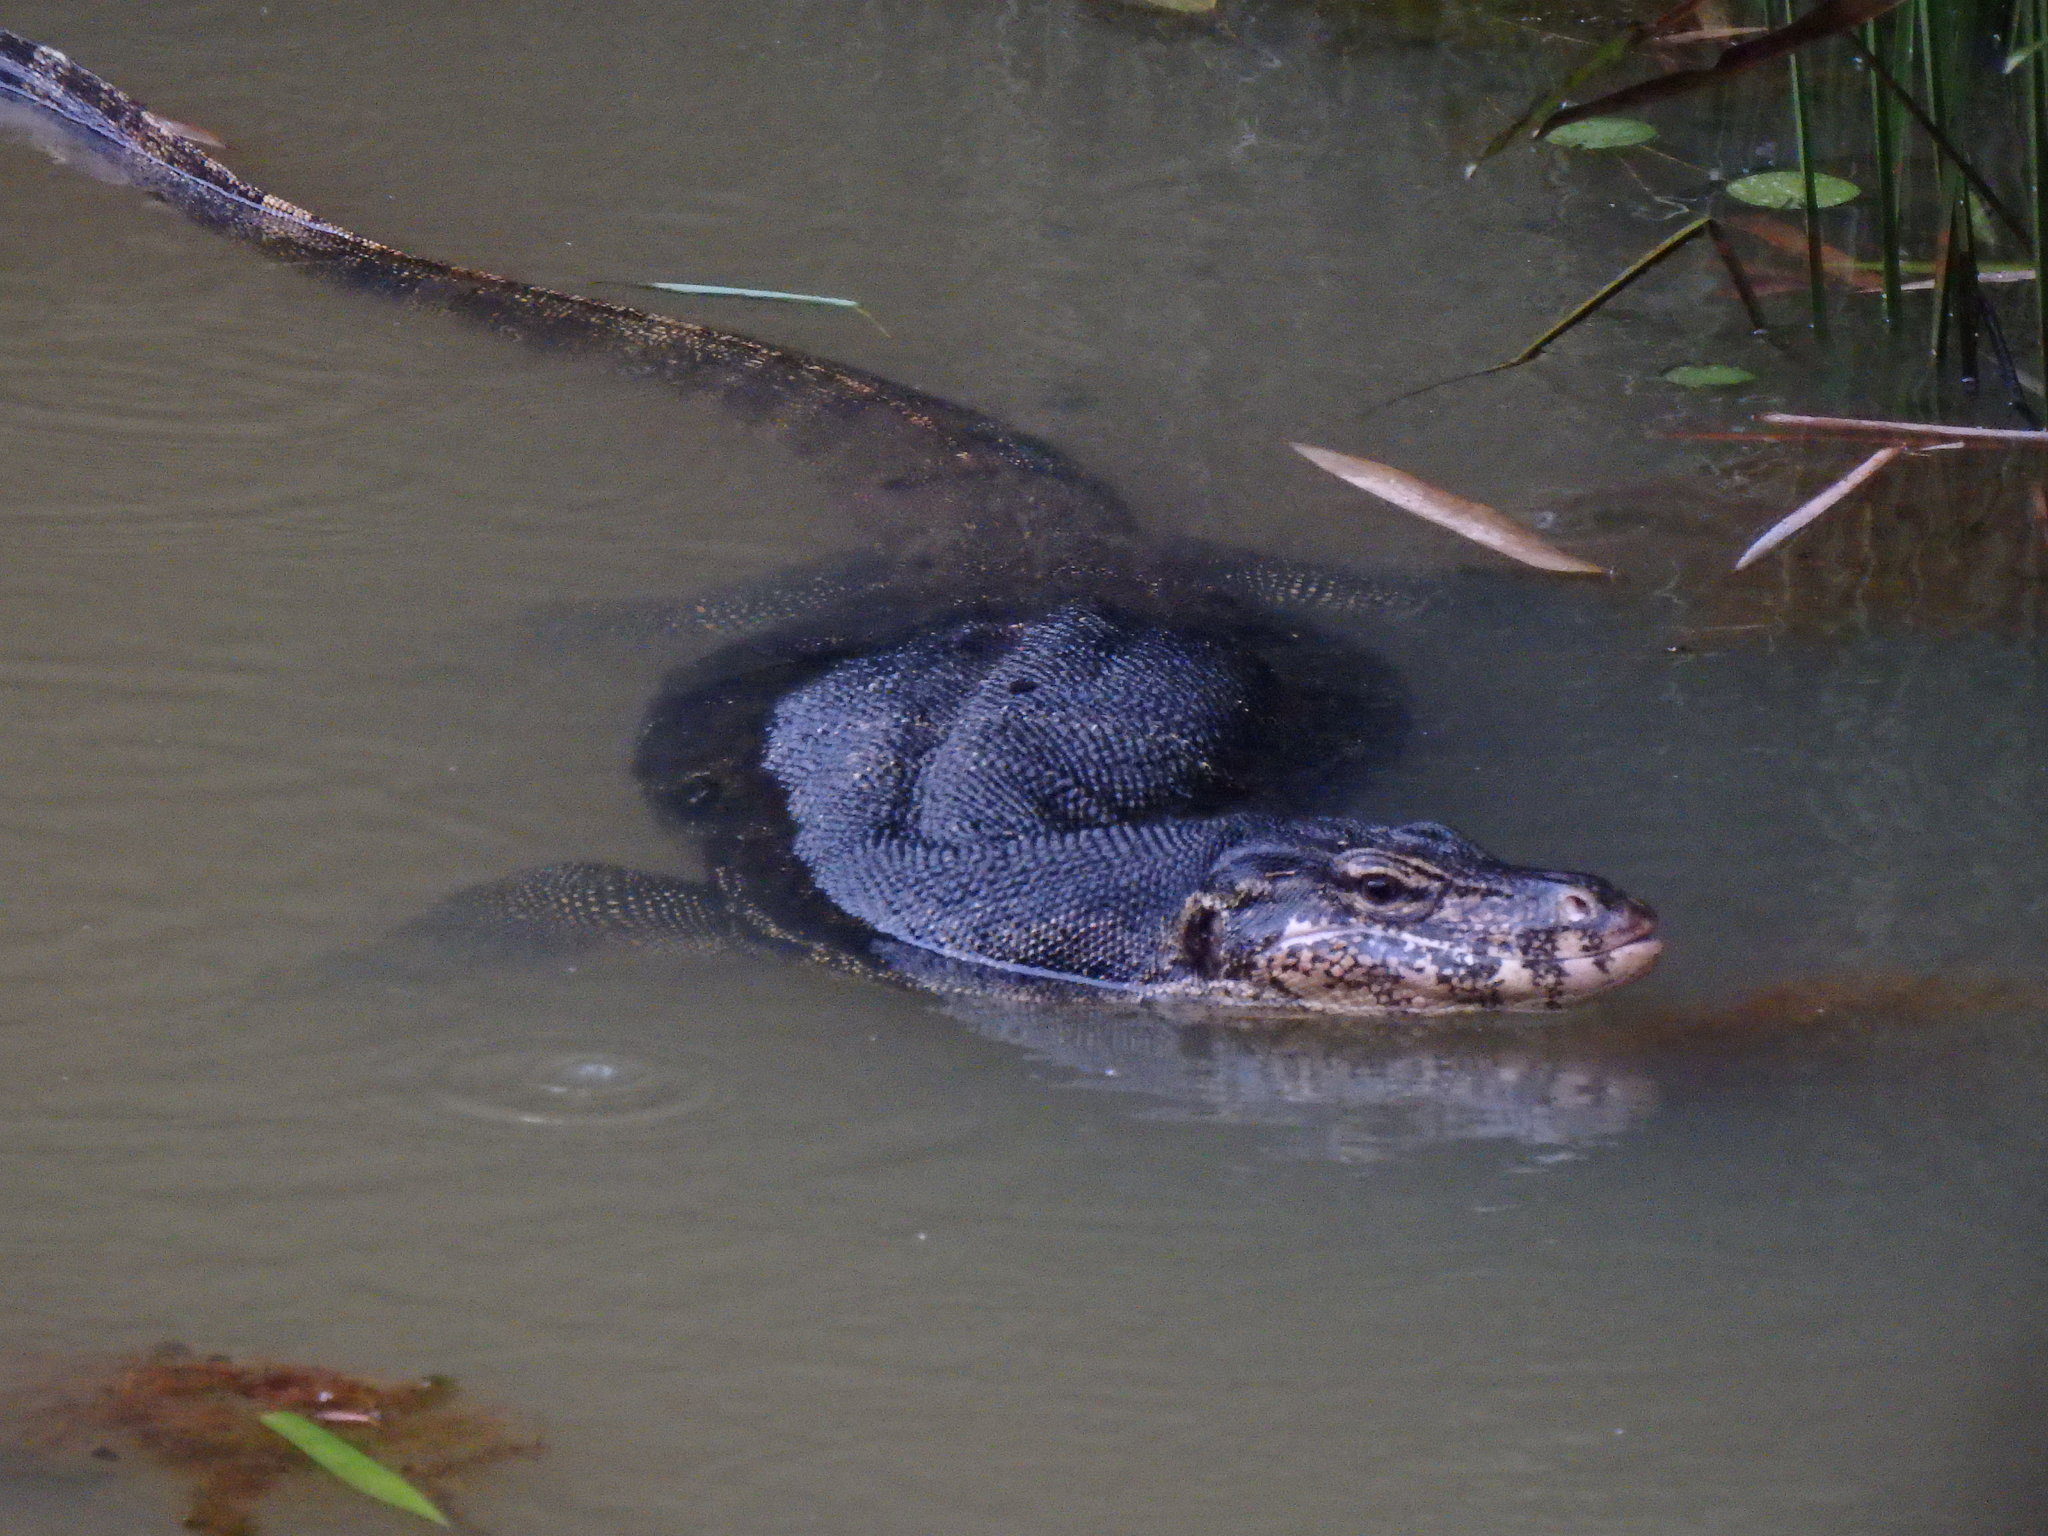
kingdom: Animalia
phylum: Chordata
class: Squamata
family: Varanidae
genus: Varanus
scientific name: Varanus salvator
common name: Common water monitor
